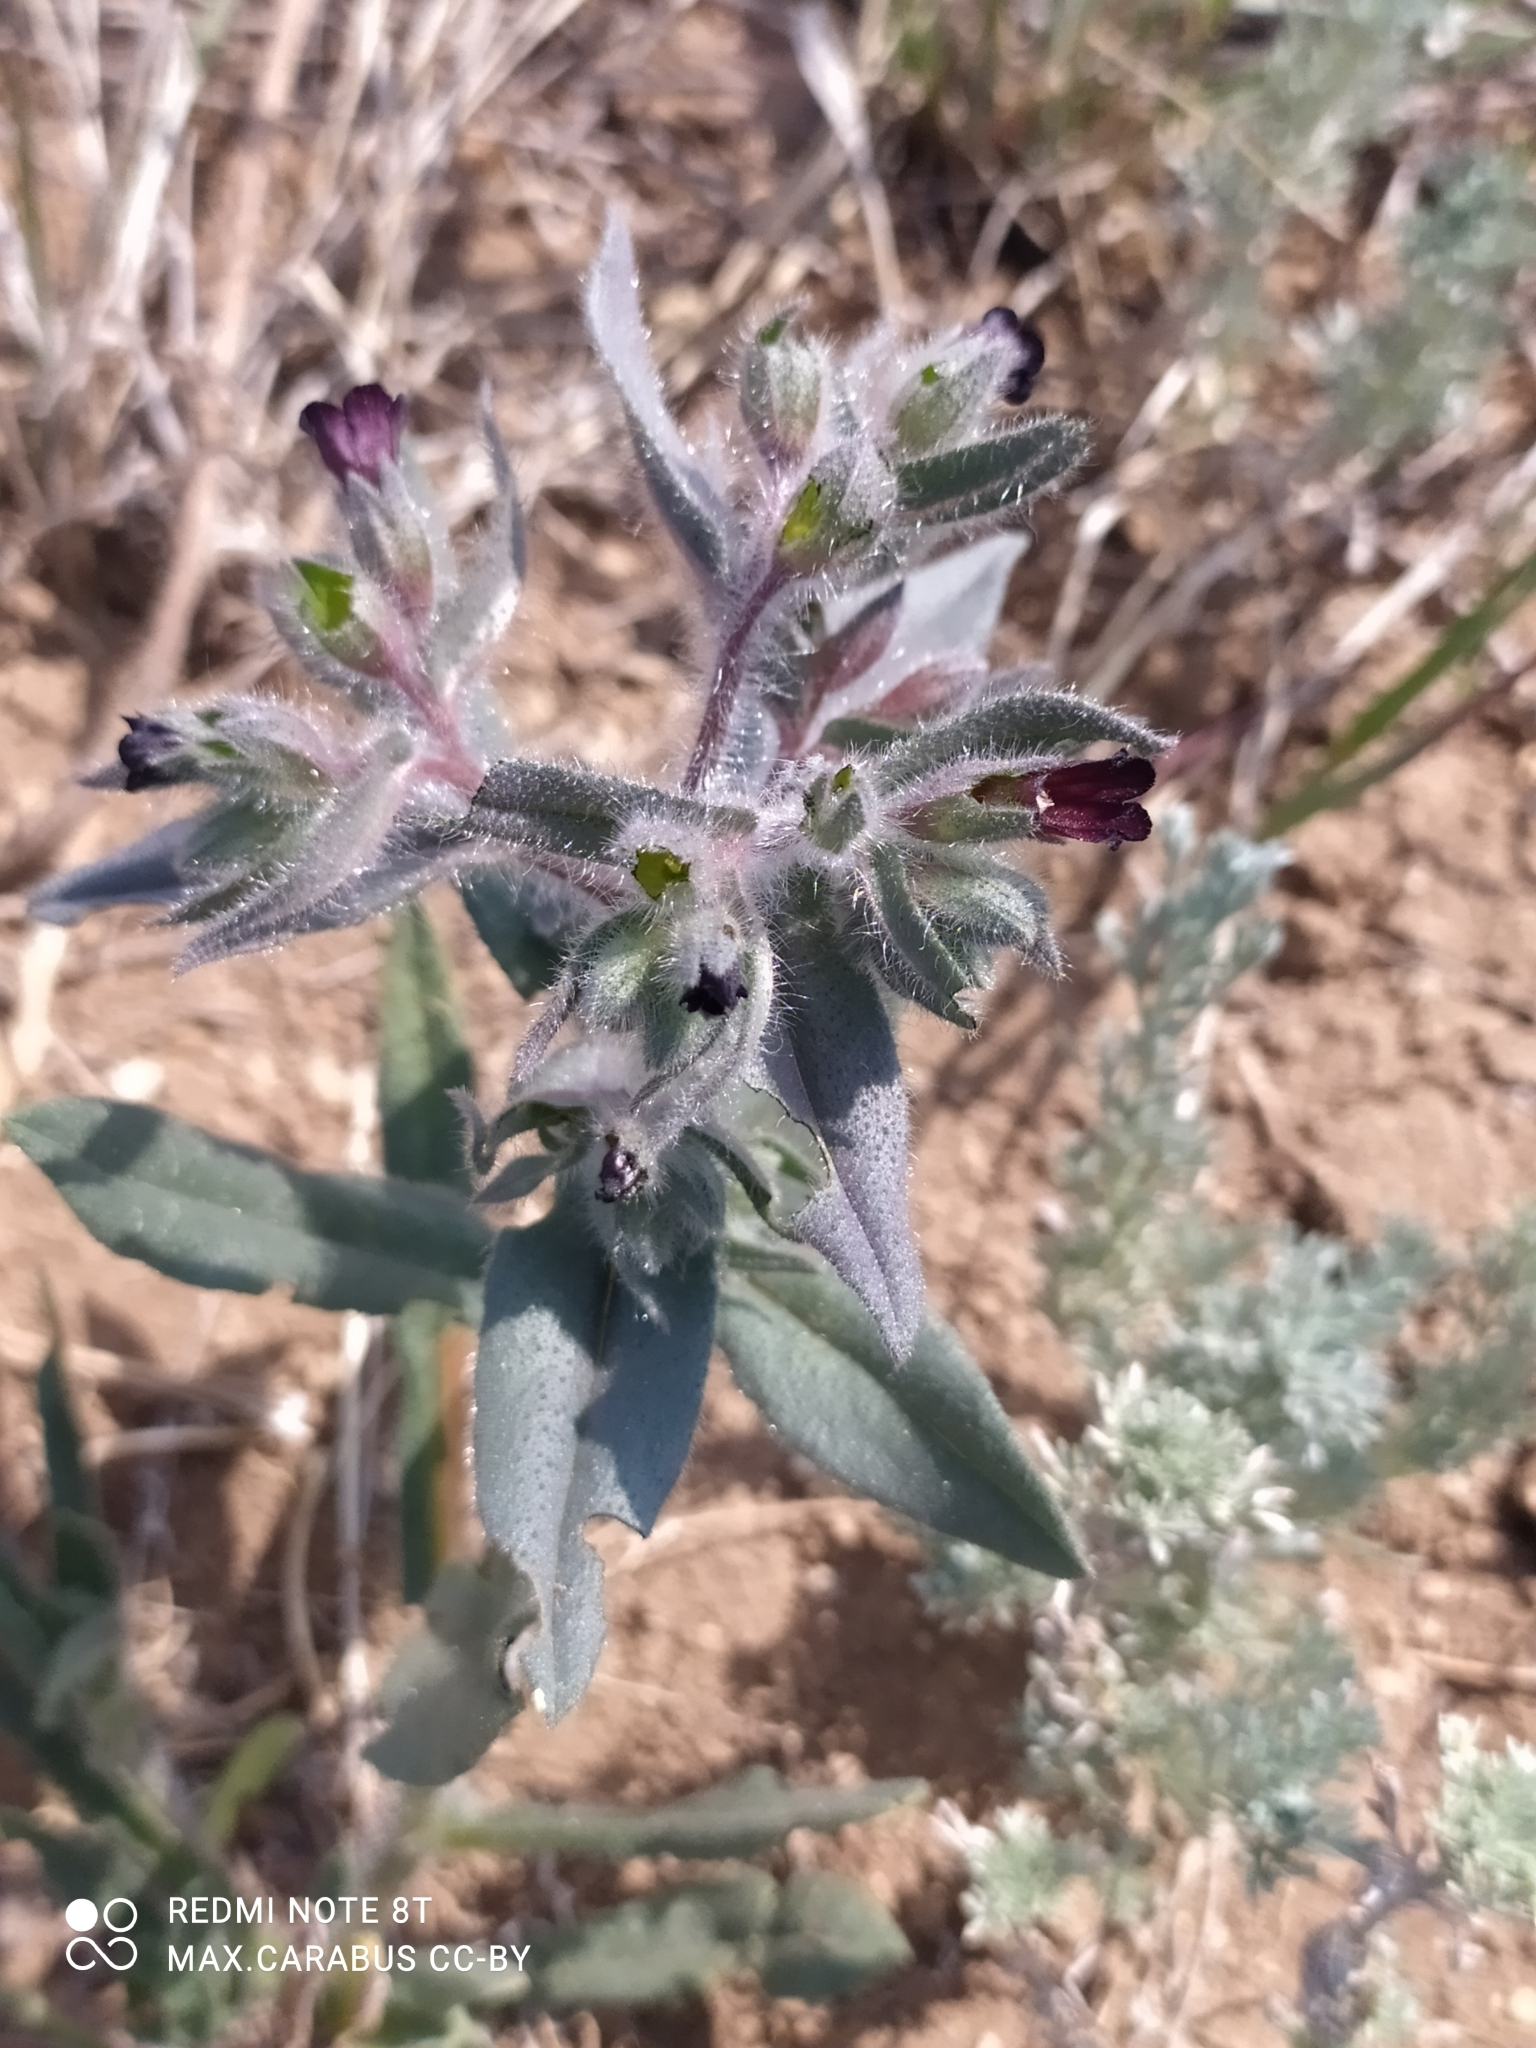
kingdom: Plantae
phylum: Tracheophyta
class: Magnoliopsida
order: Boraginales
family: Boraginaceae
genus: Nonea
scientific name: Nonea pulla
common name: Brown nonea
